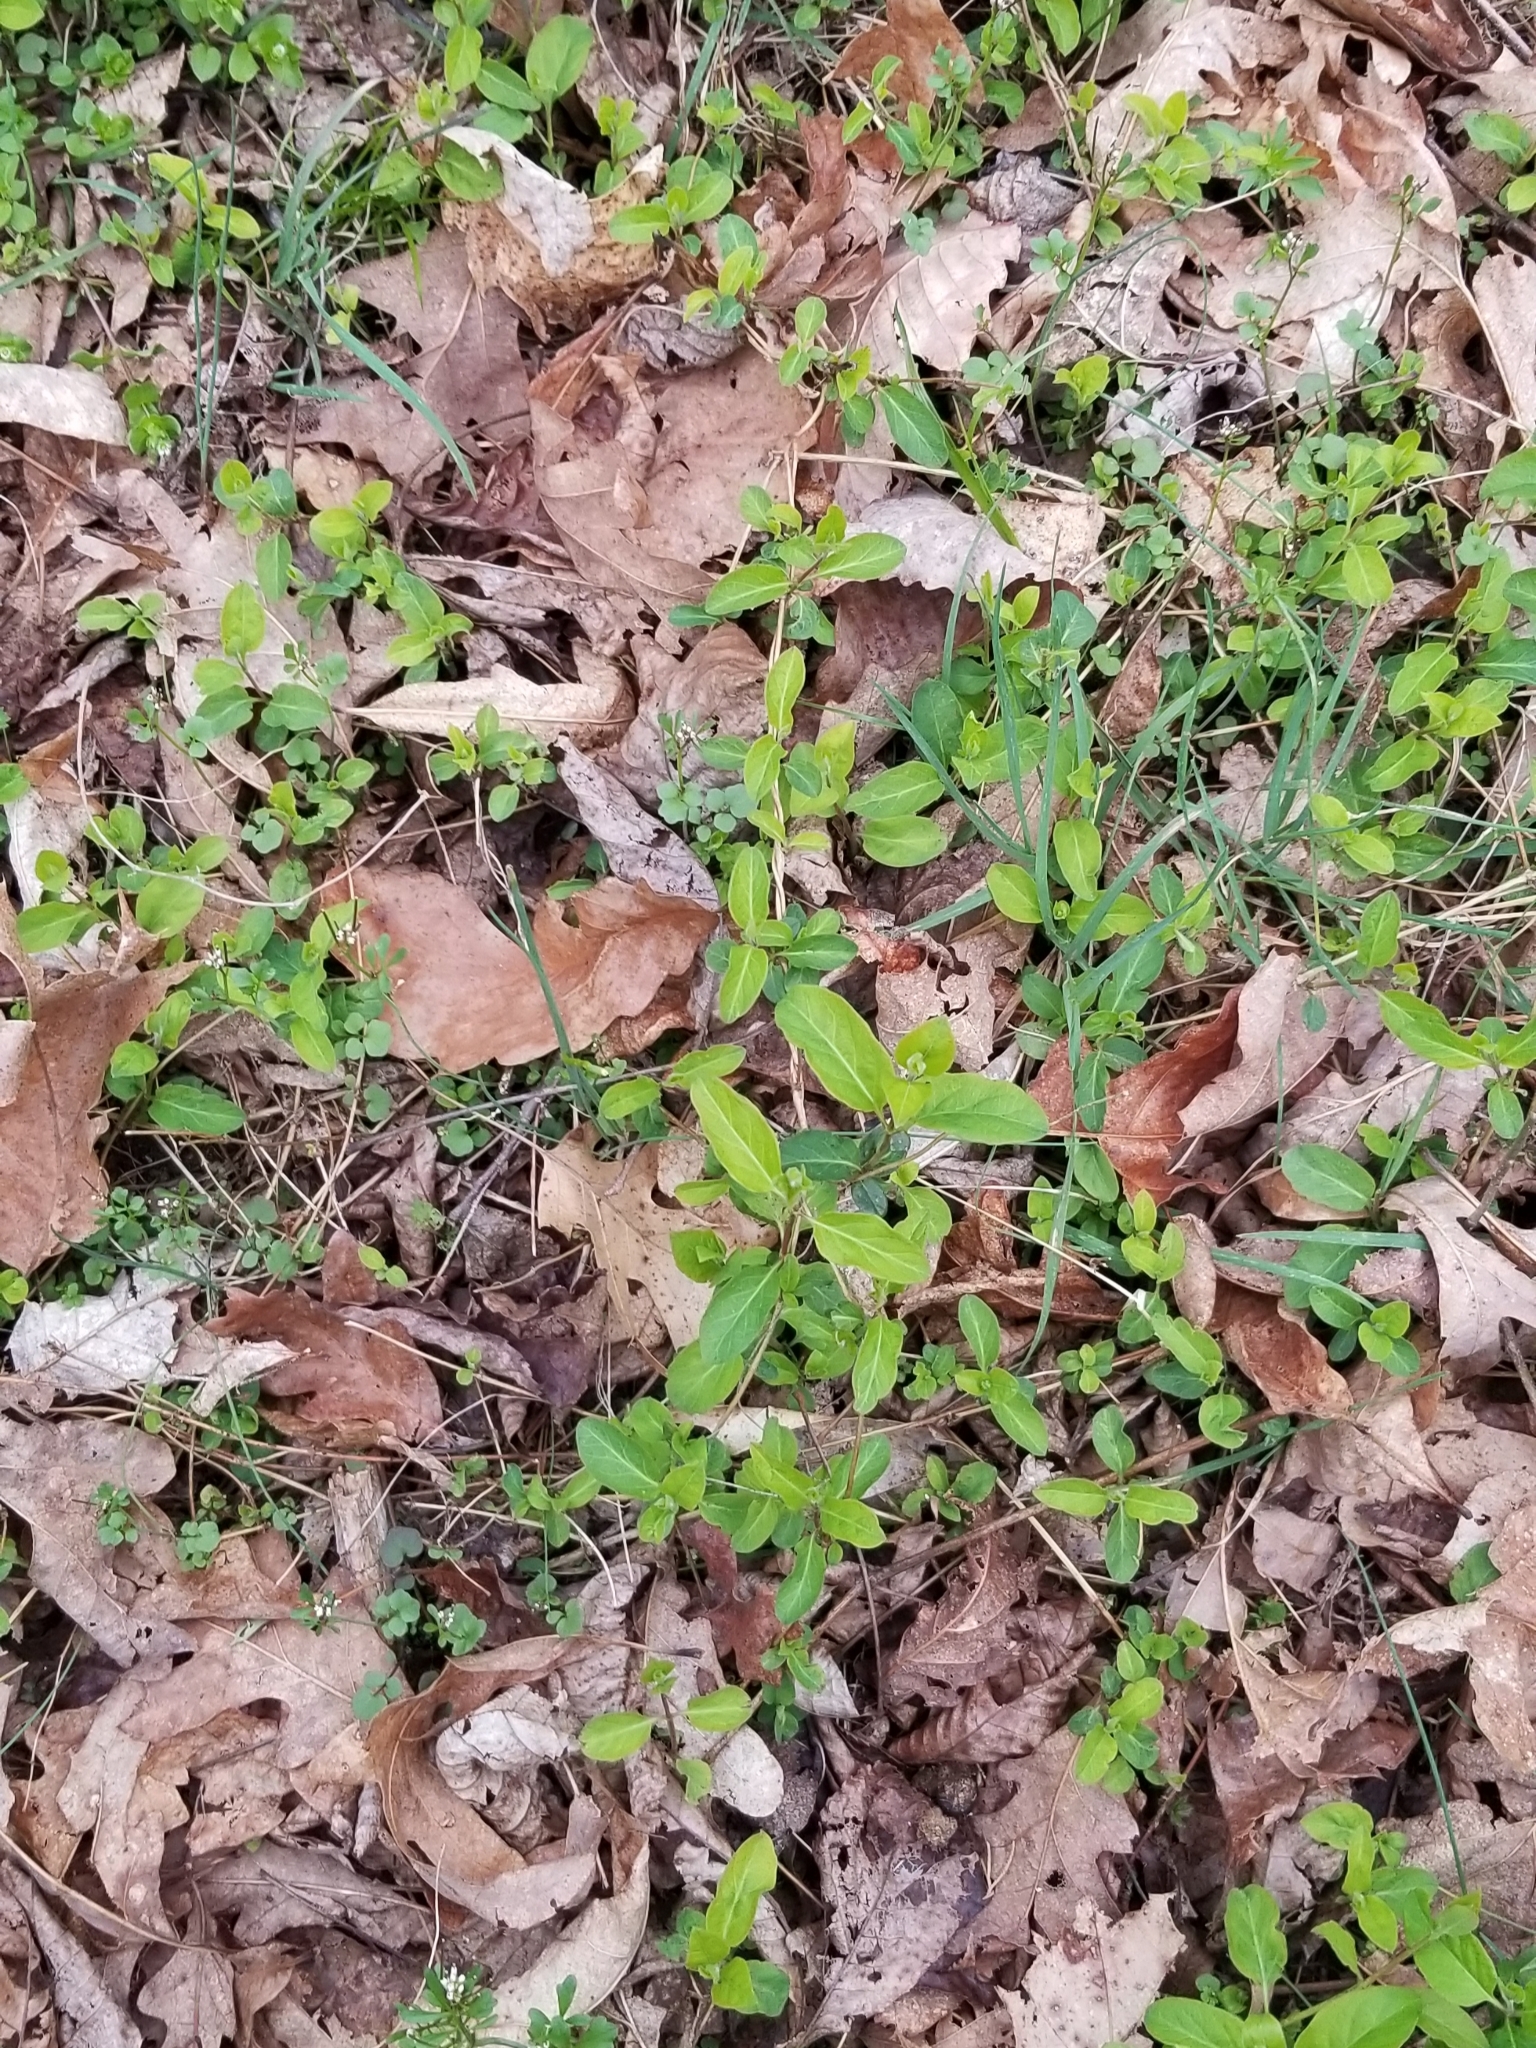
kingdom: Plantae
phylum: Tracheophyta
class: Magnoliopsida
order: Dipsacales
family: Caprifoliaceae
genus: Lonicera
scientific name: Lonicera japonica
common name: Japanese honeysuckle
